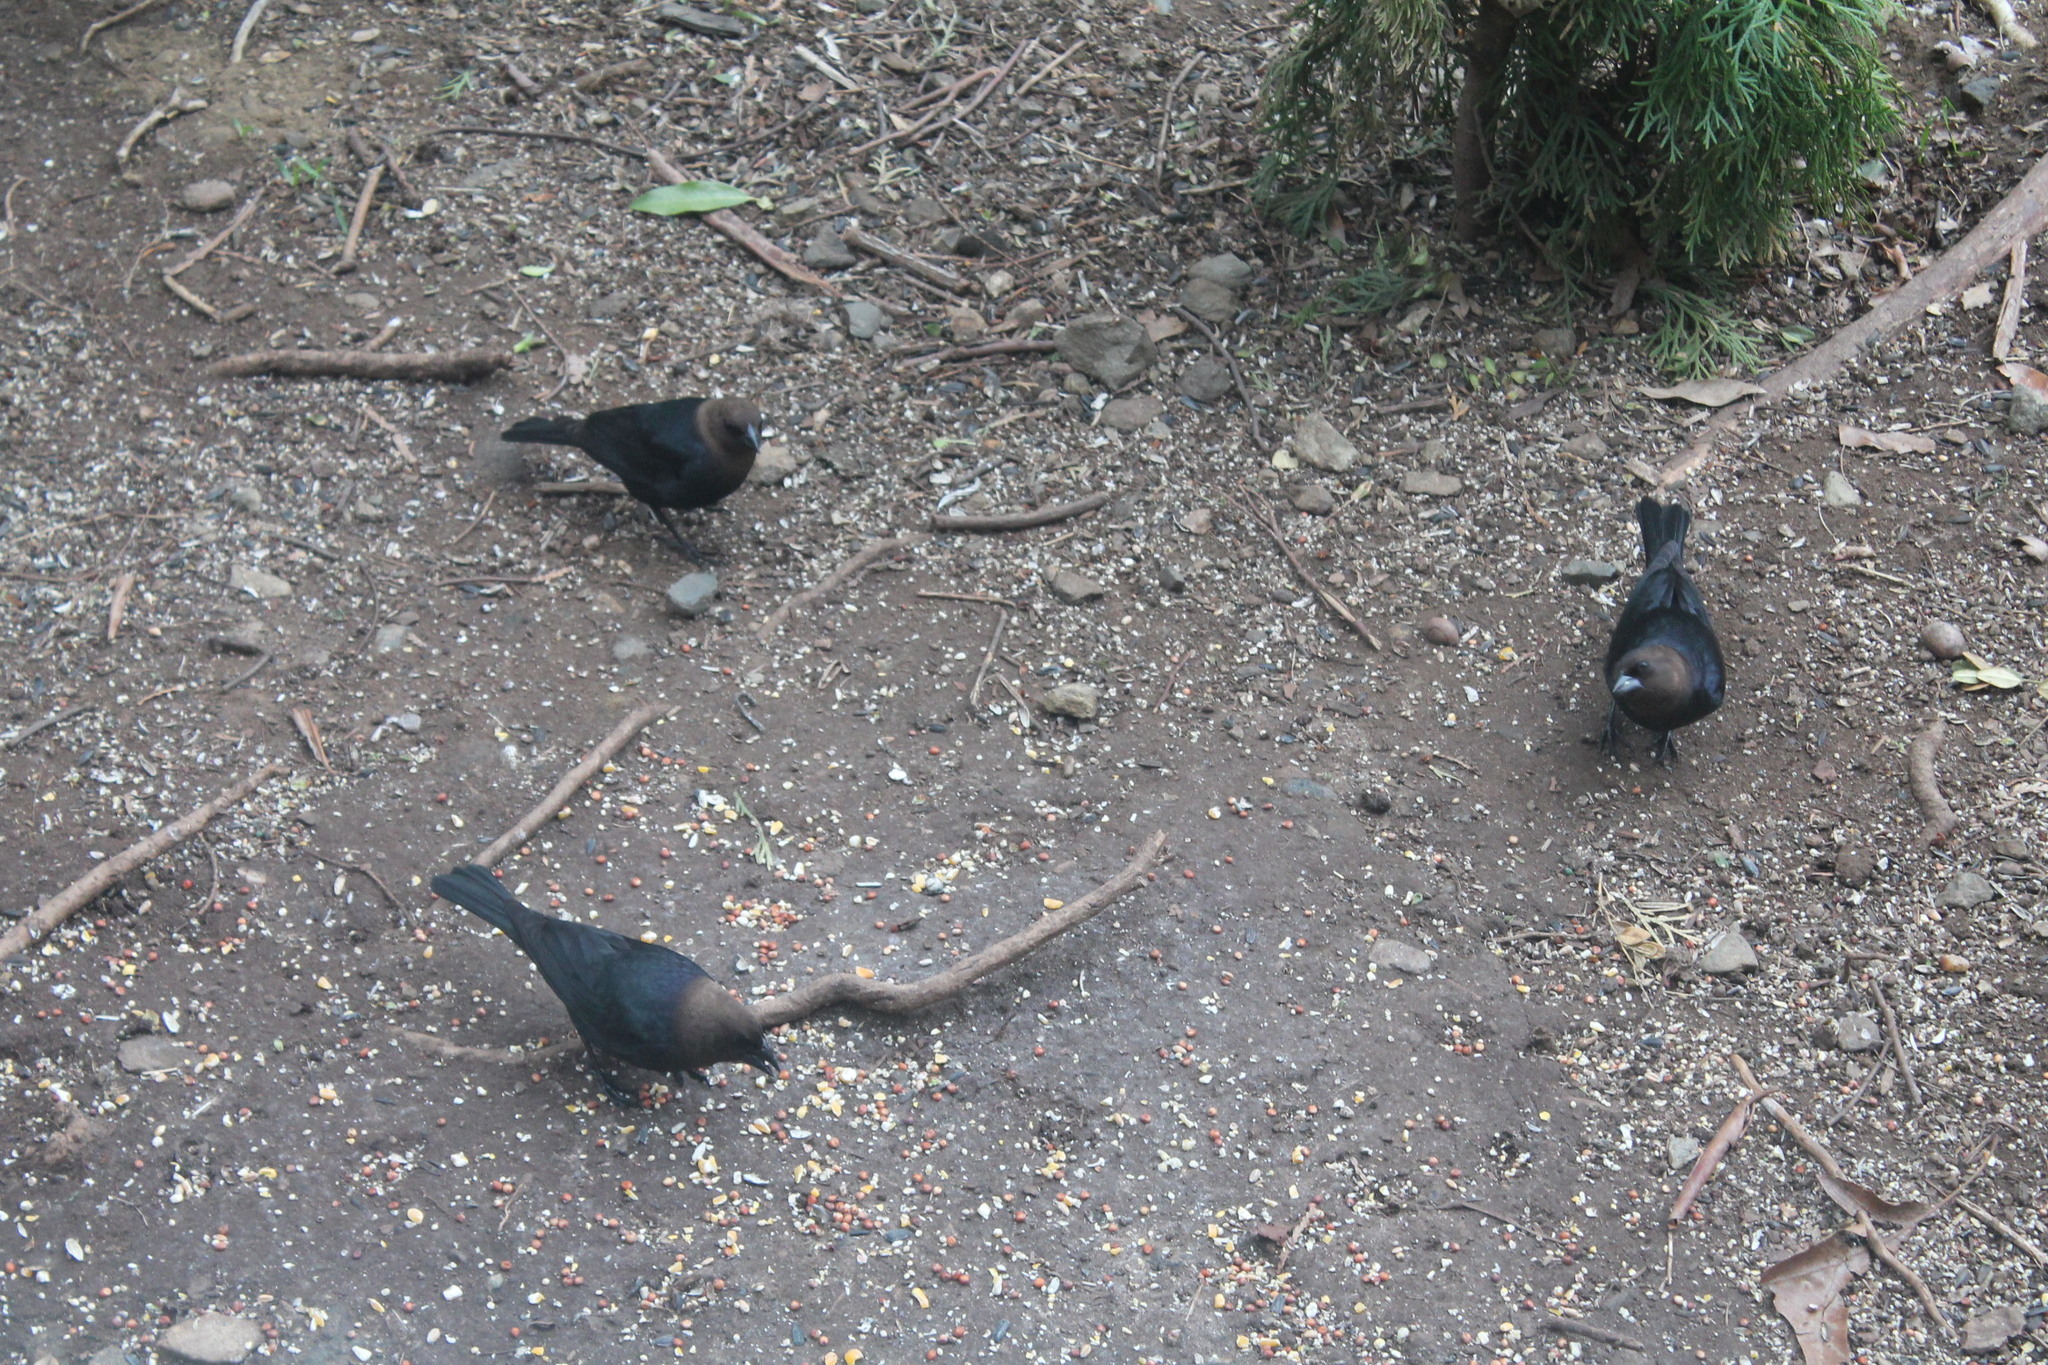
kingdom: Animalia
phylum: Chordata
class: Aves
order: Passeriformes
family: Icteridae
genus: Molothrus
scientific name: Molothrus ater
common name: Brown-headed cowbird
